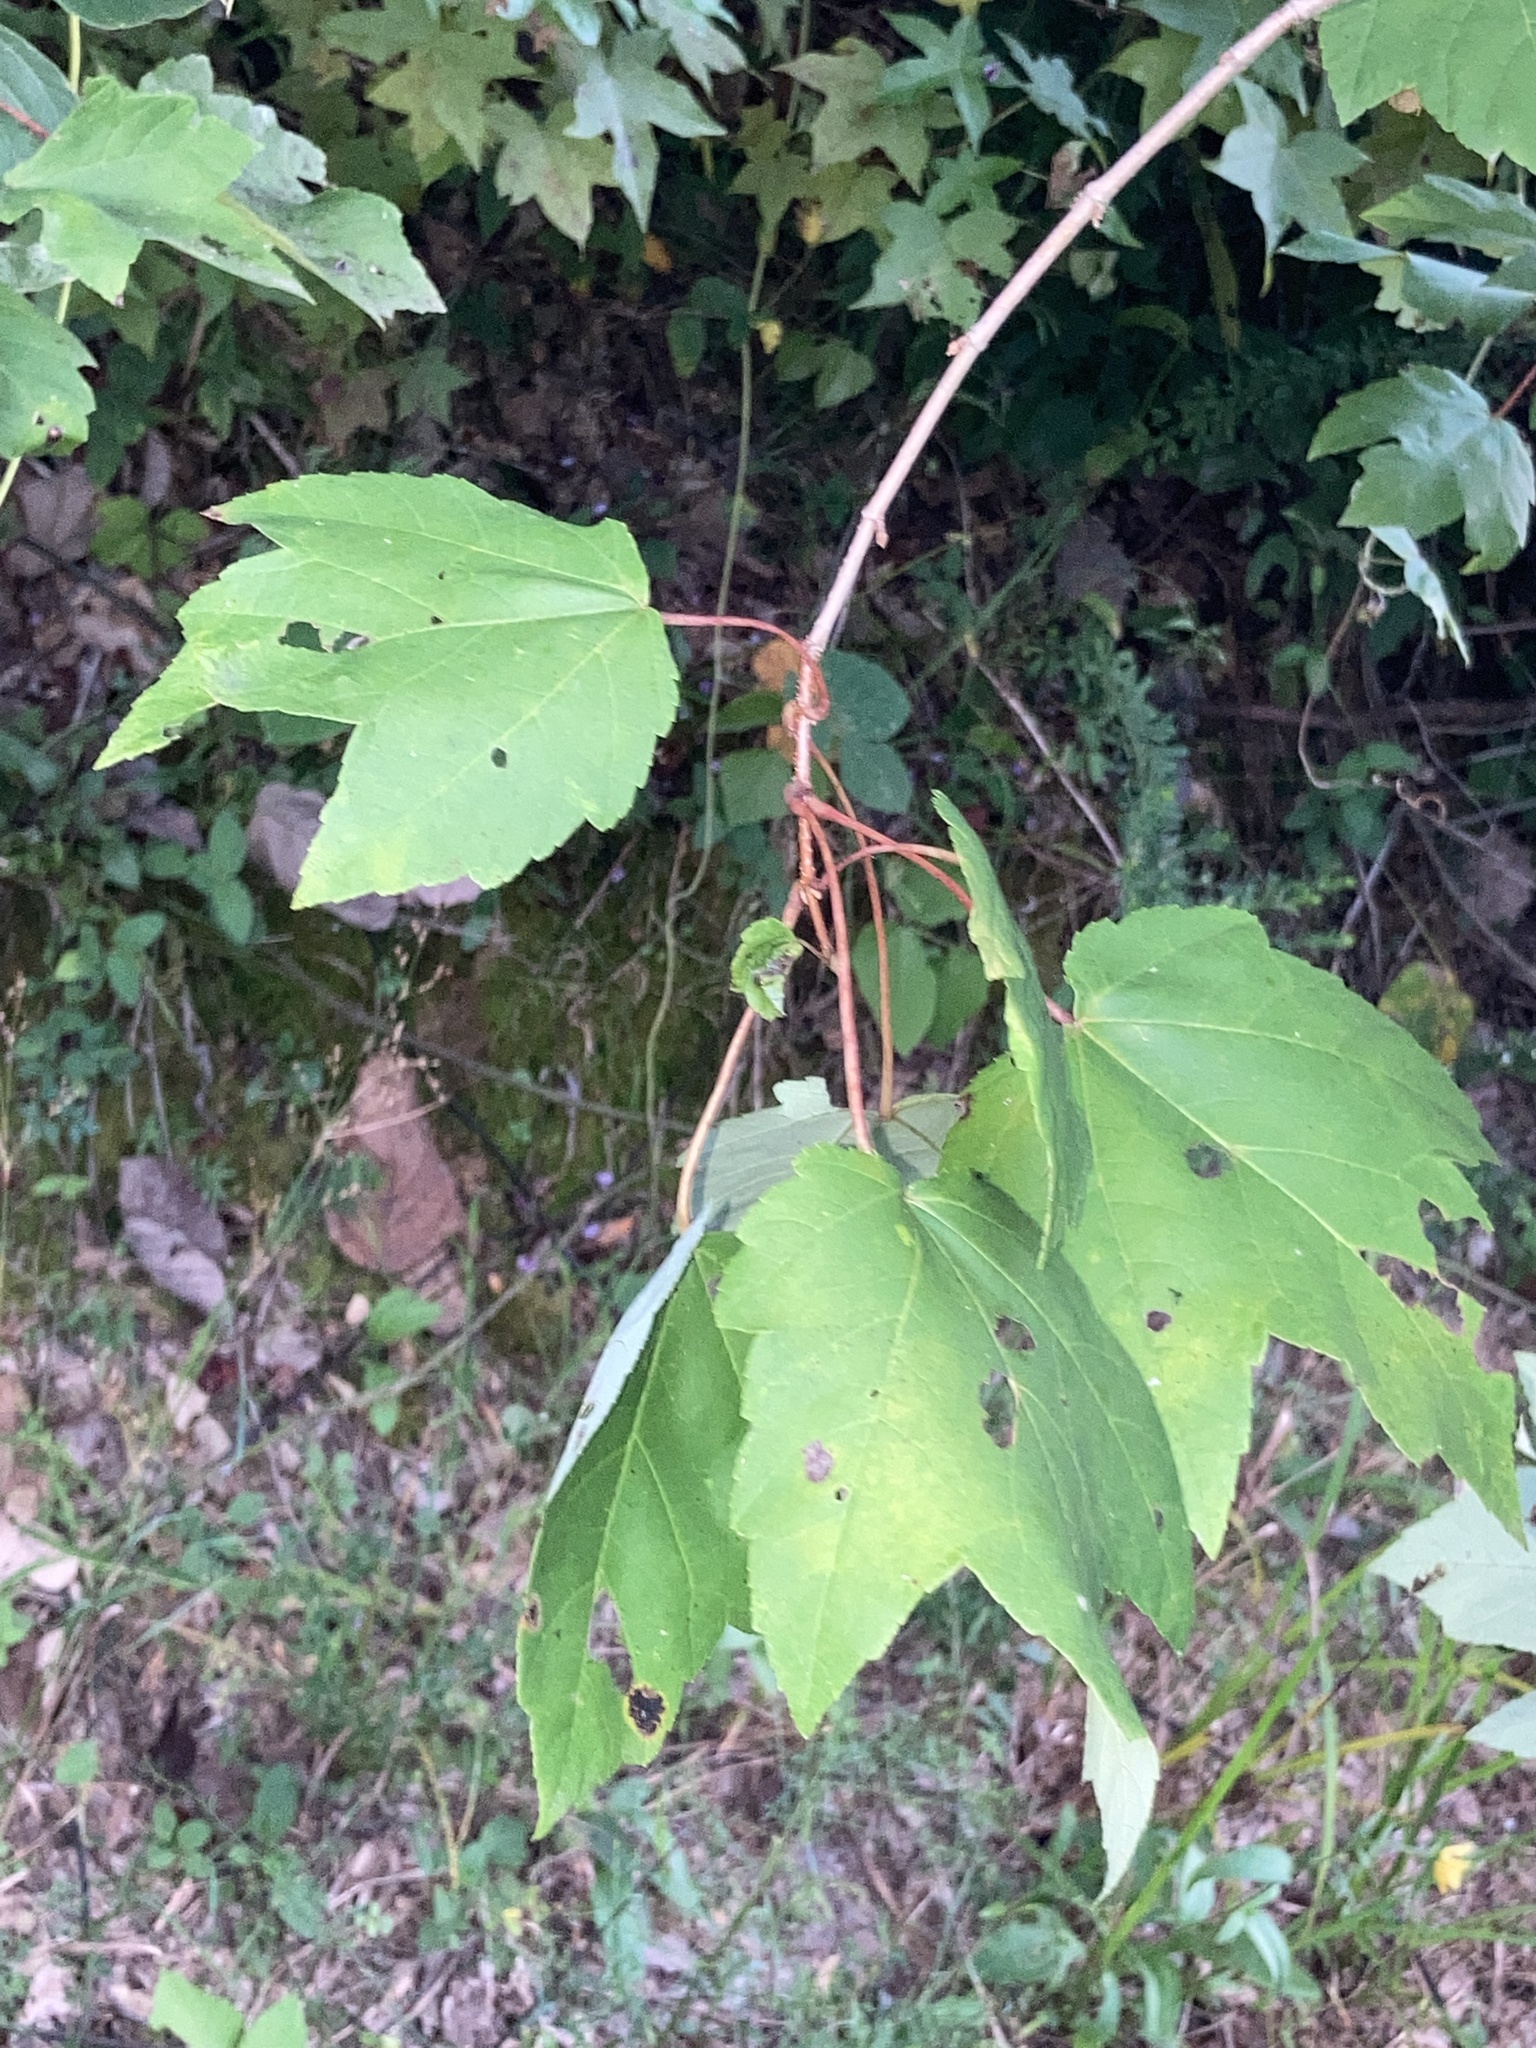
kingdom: Plantae
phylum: Tracheophyta
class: Magnoliopsida
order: Sapindales
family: Sapindaceae
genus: Acer
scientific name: Acer rubrum
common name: Red maple
